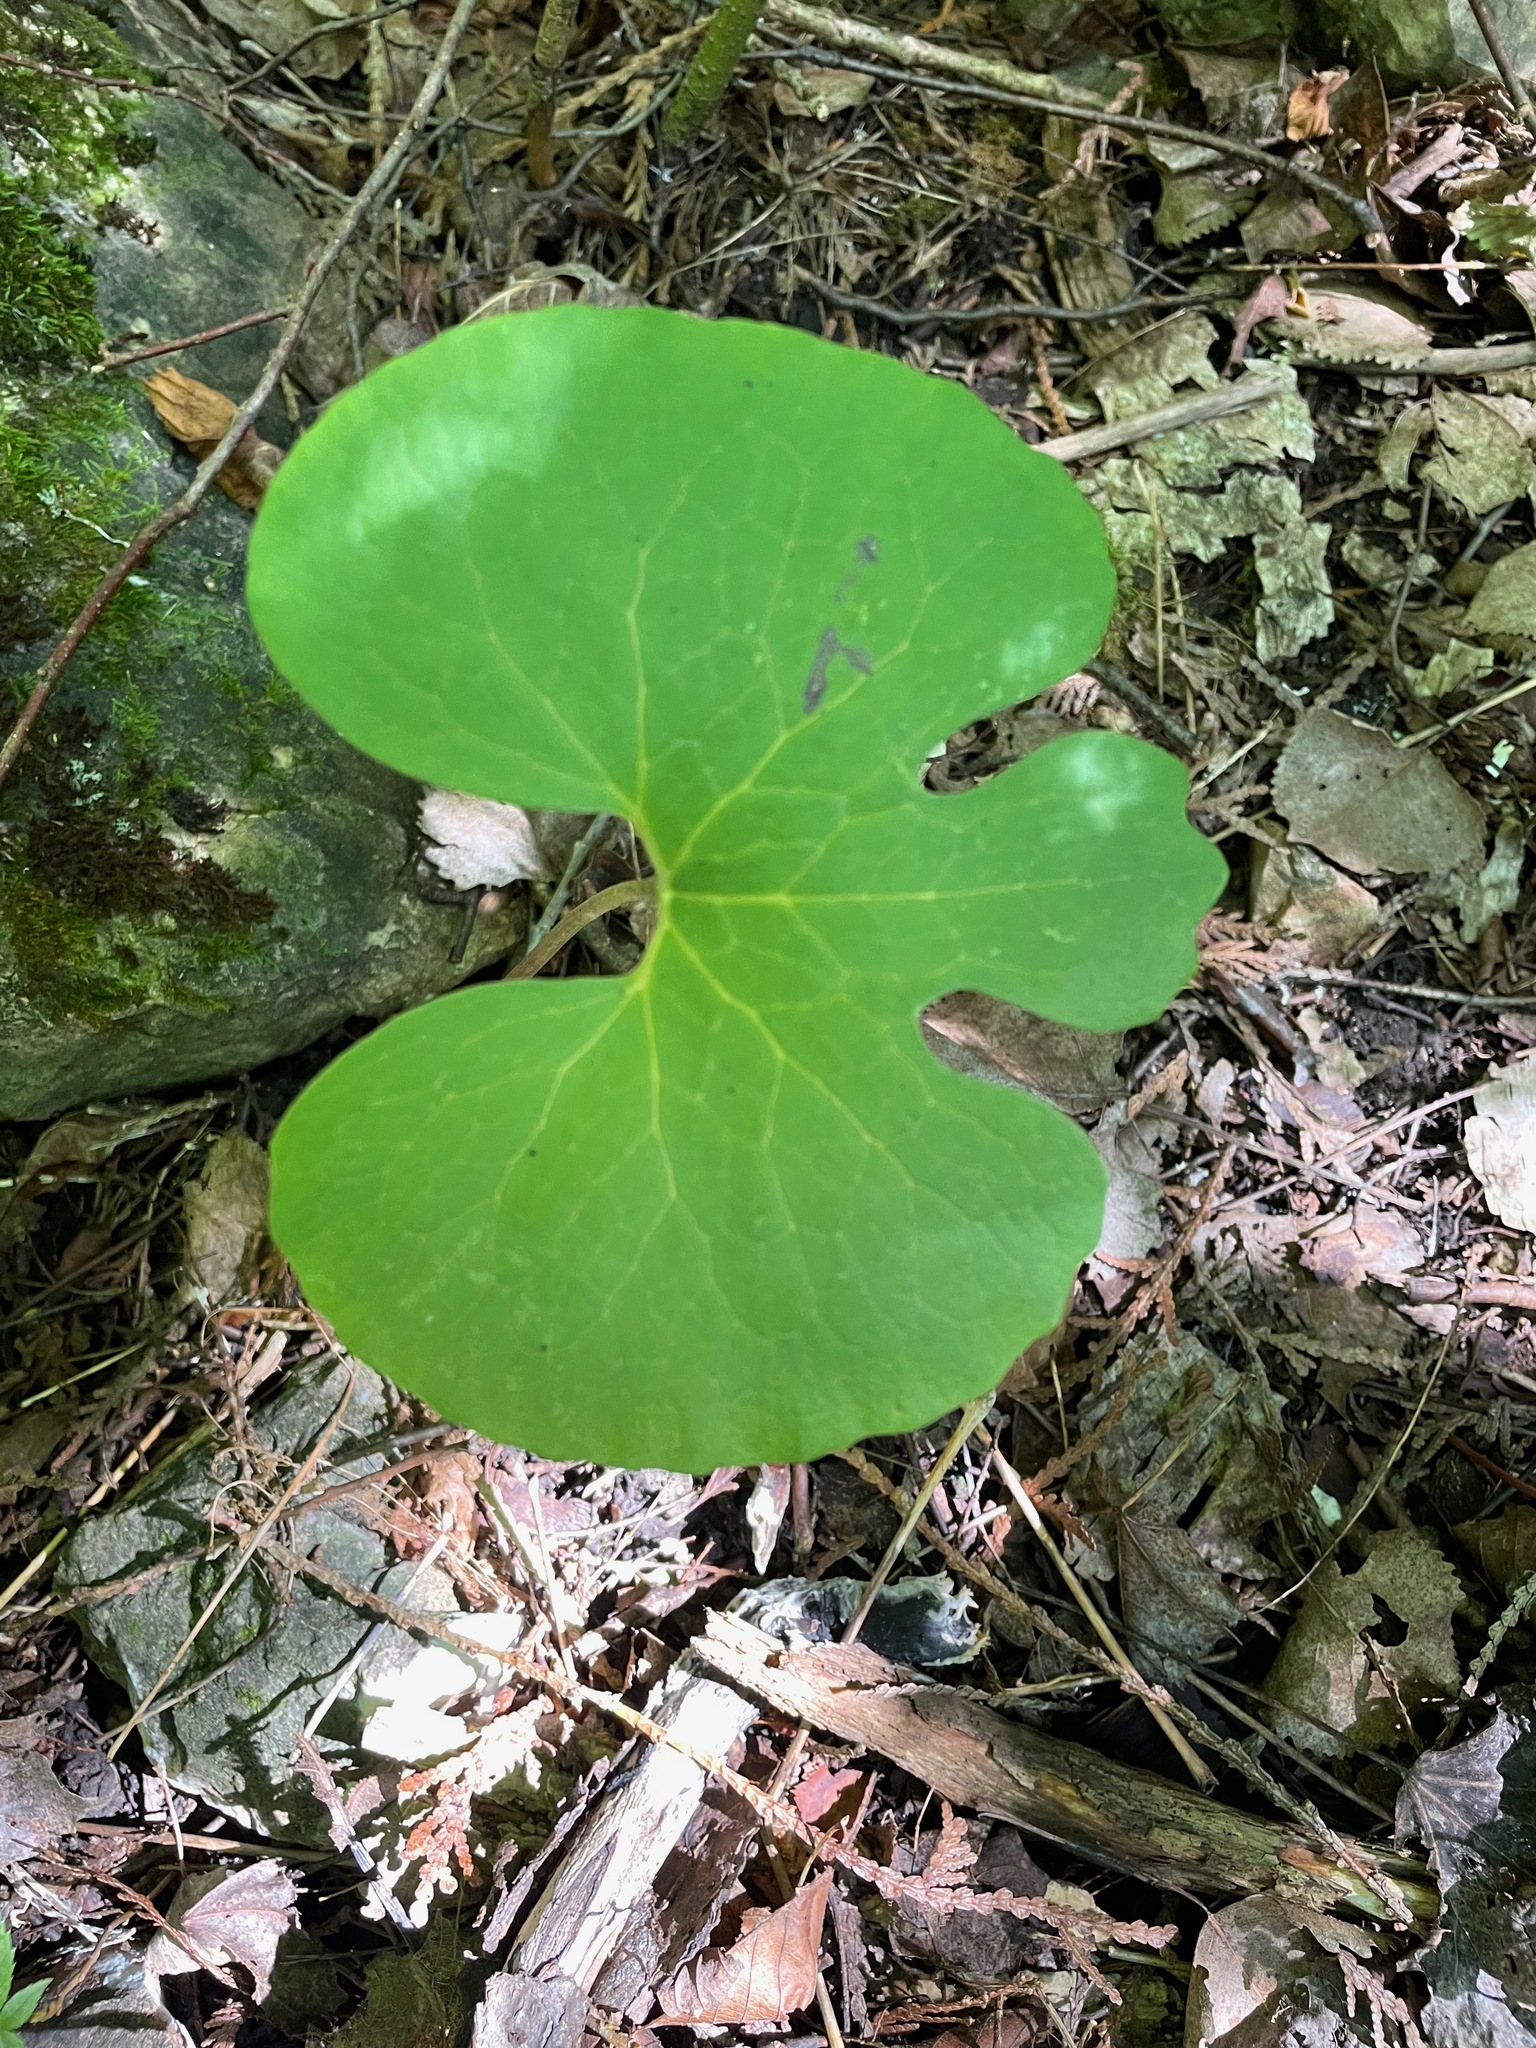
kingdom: Plantae
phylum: Tracheophyta
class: Magnoliopsida
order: Ranunculales
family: Papaveraceae
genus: Sanguinaria
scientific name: Sanguinaria canadensis
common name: Bloodroot
